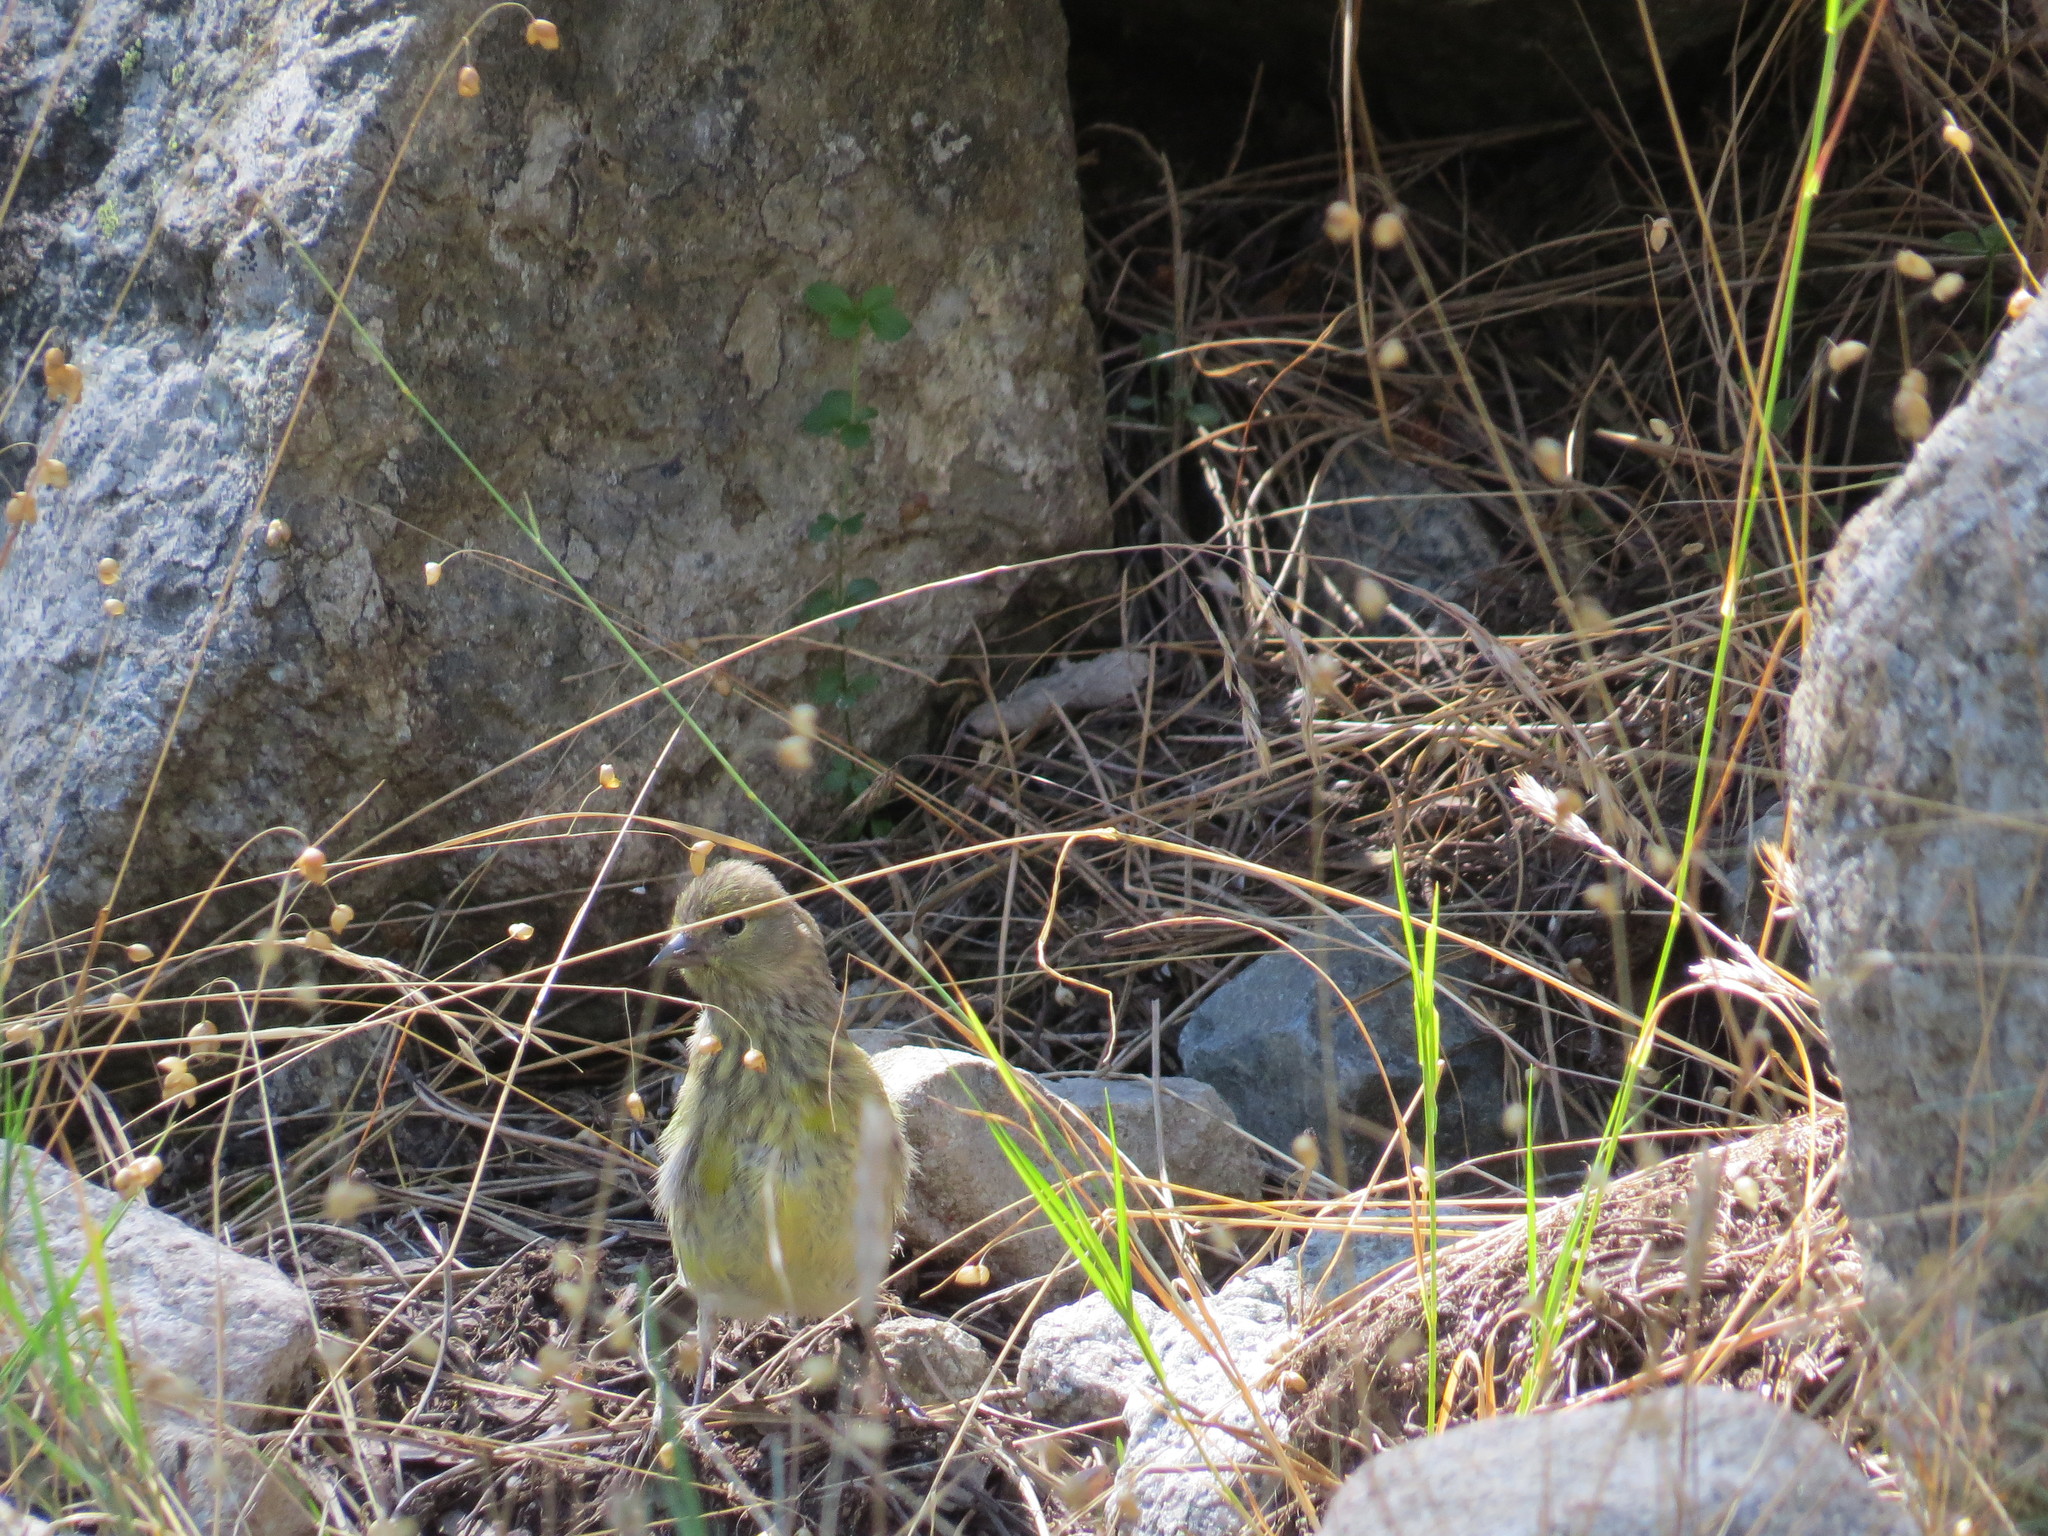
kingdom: Animalia
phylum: Chordata
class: Aves
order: Passeriformes
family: Fringillidae
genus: Carduelis
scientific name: Carduelis corsicana
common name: Corsican finch
